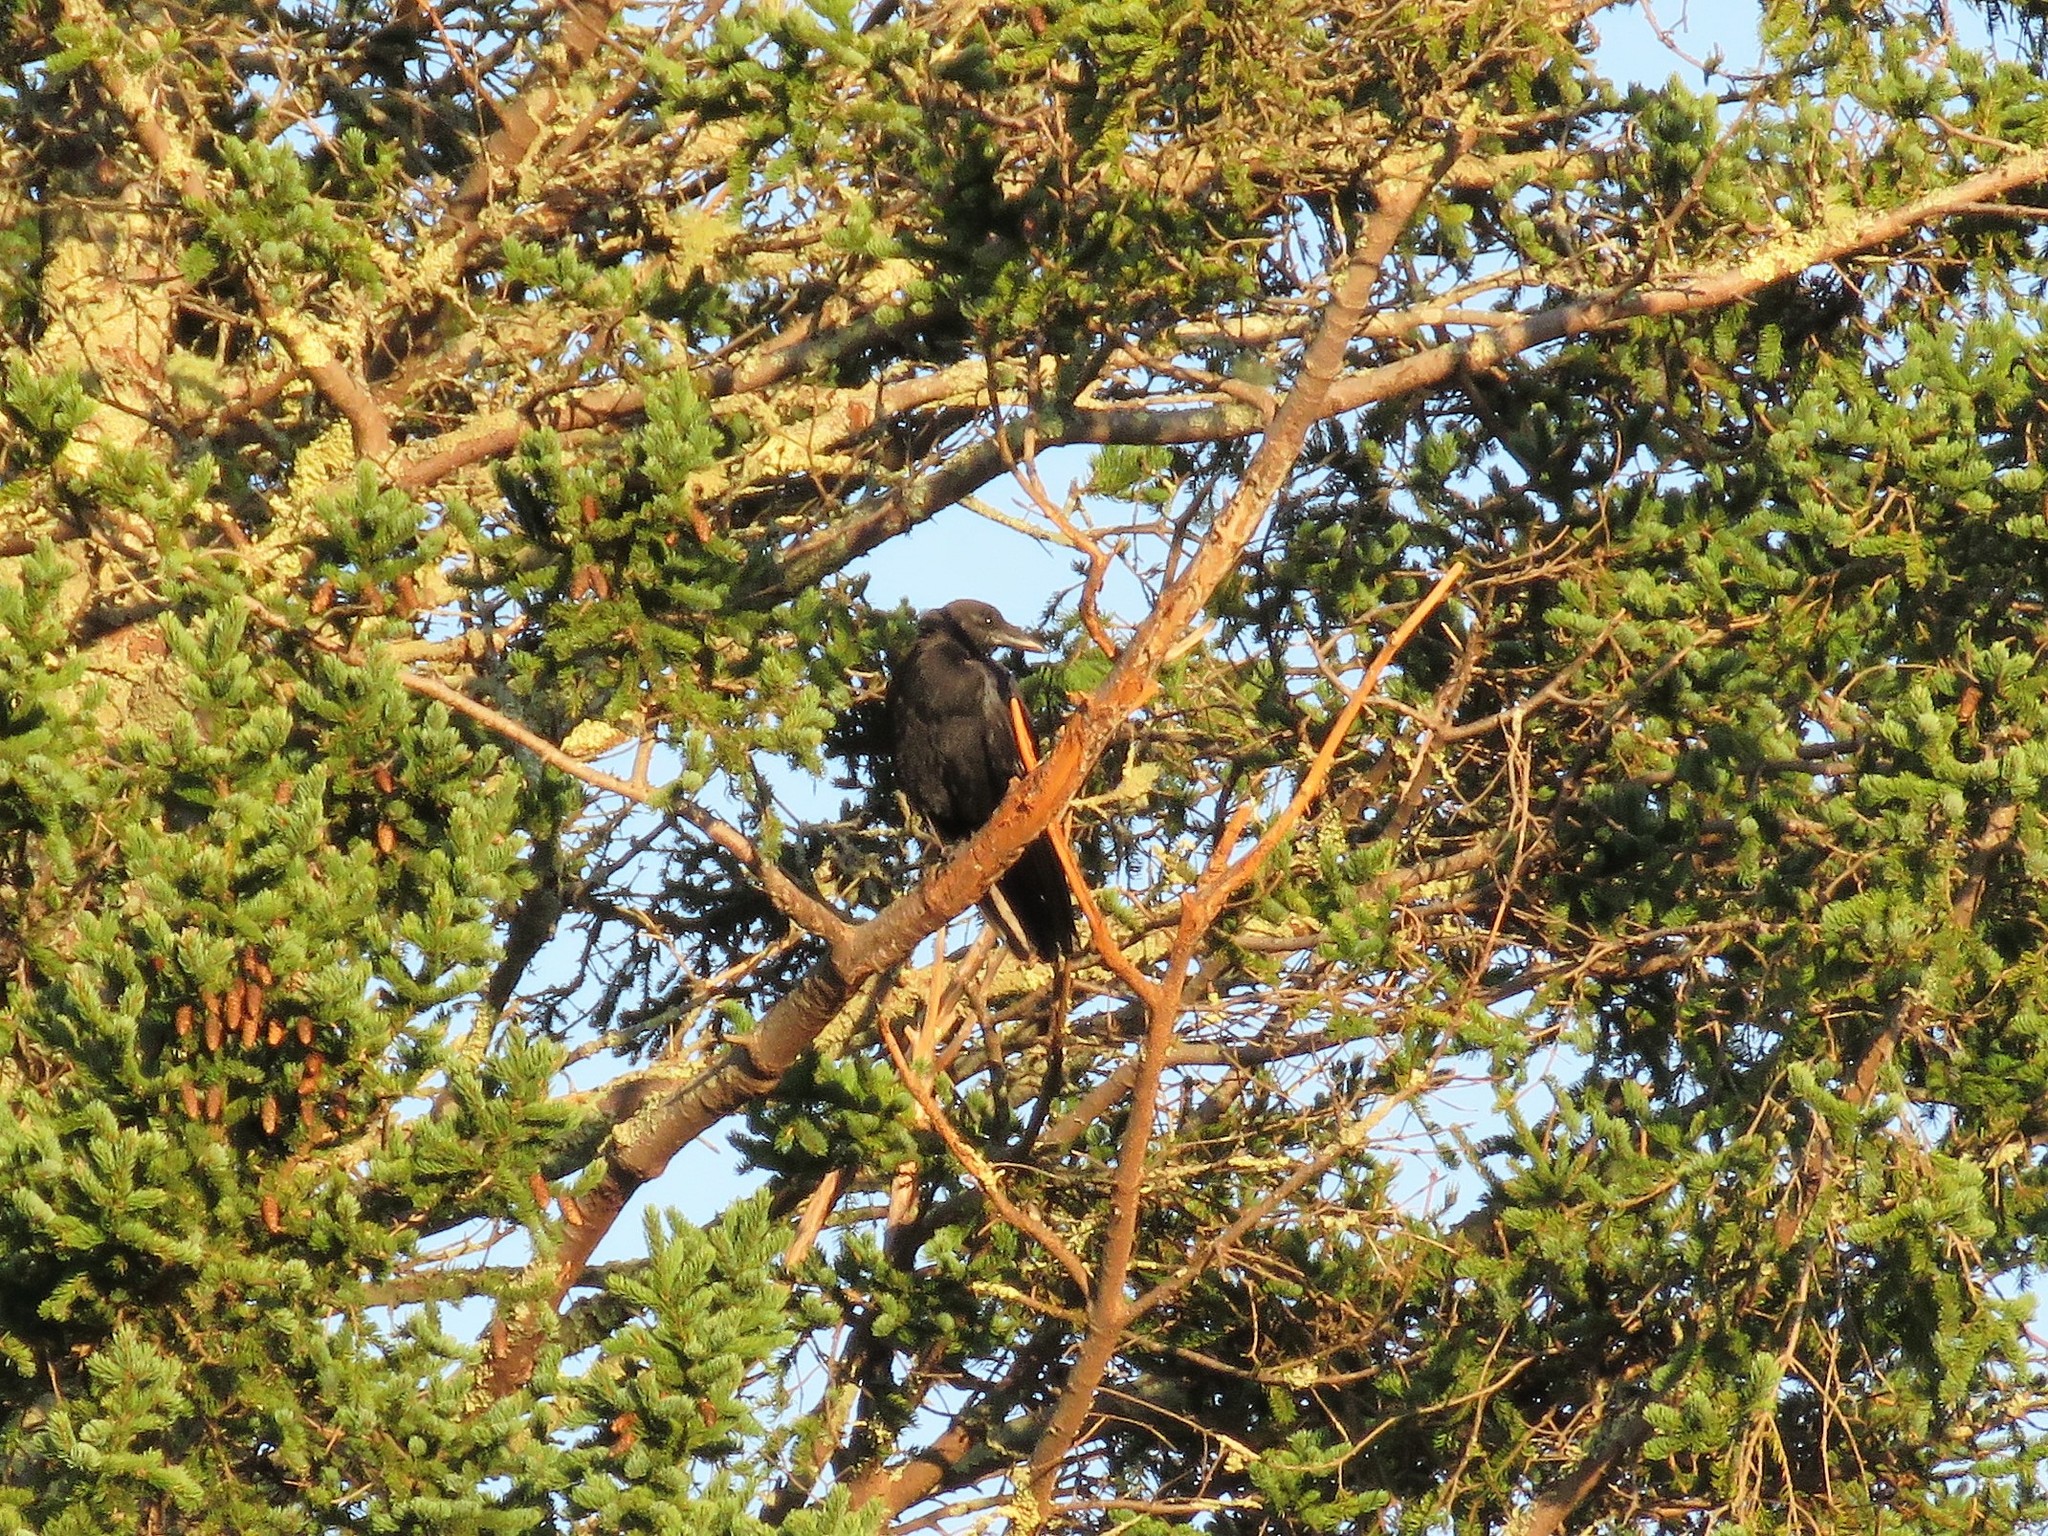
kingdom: Animalia
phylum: Chordata
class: Aves
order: Passeriformes
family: Corvidae
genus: Corvus
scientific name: Corvus brachyrhynchos
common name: American crow
